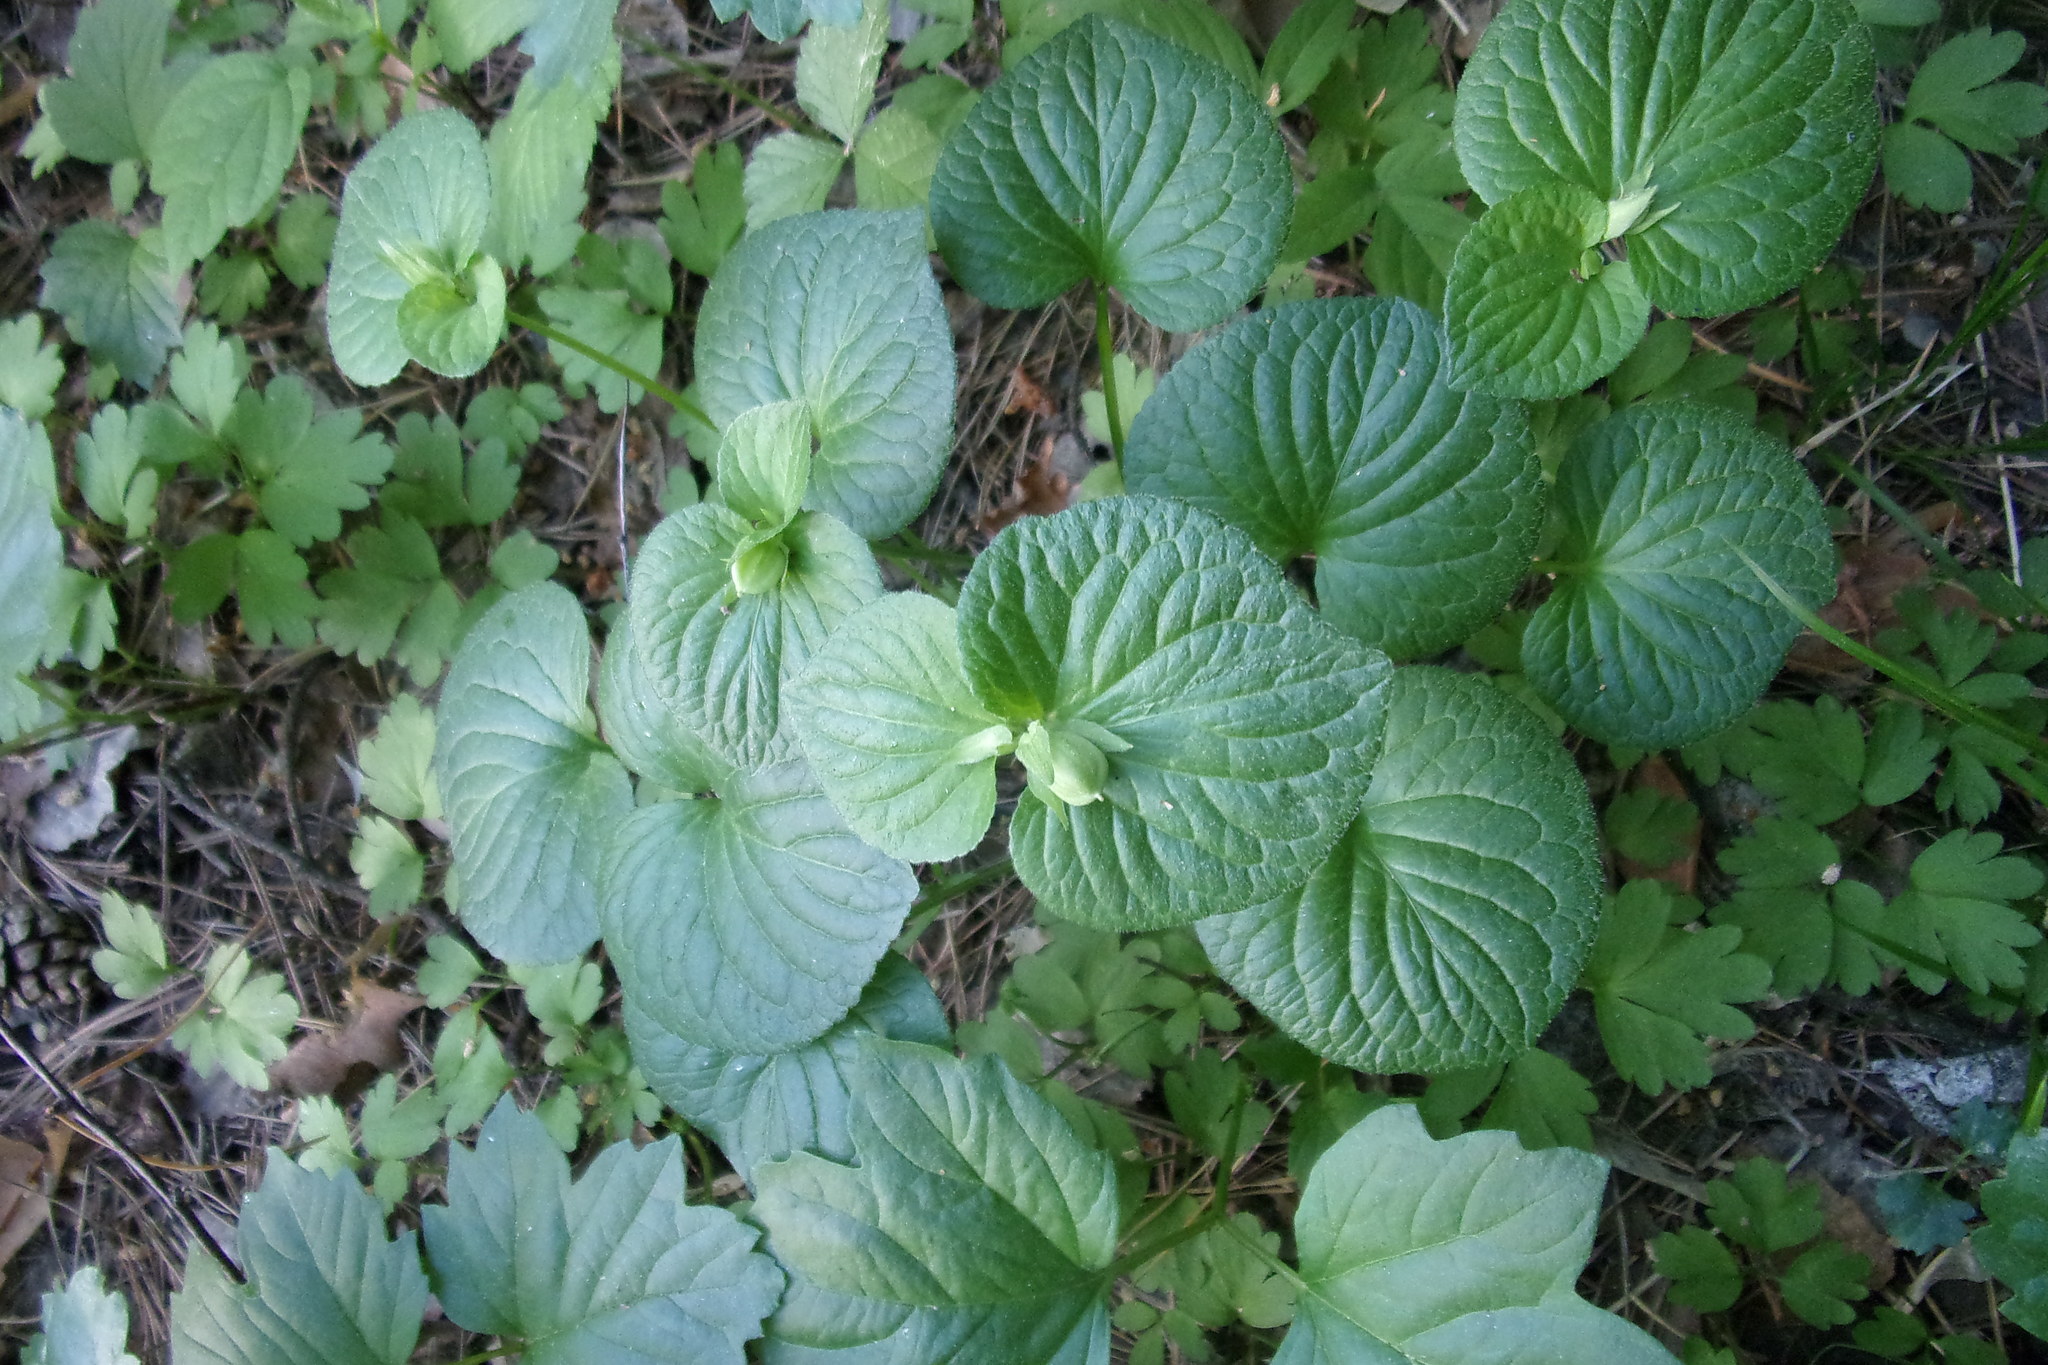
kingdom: Plantae
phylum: Tracheophyta
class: Magnoliopsida
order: Malpighiales
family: Violaceae
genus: Viola
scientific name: Viola mirabilis
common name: Wonder violet
